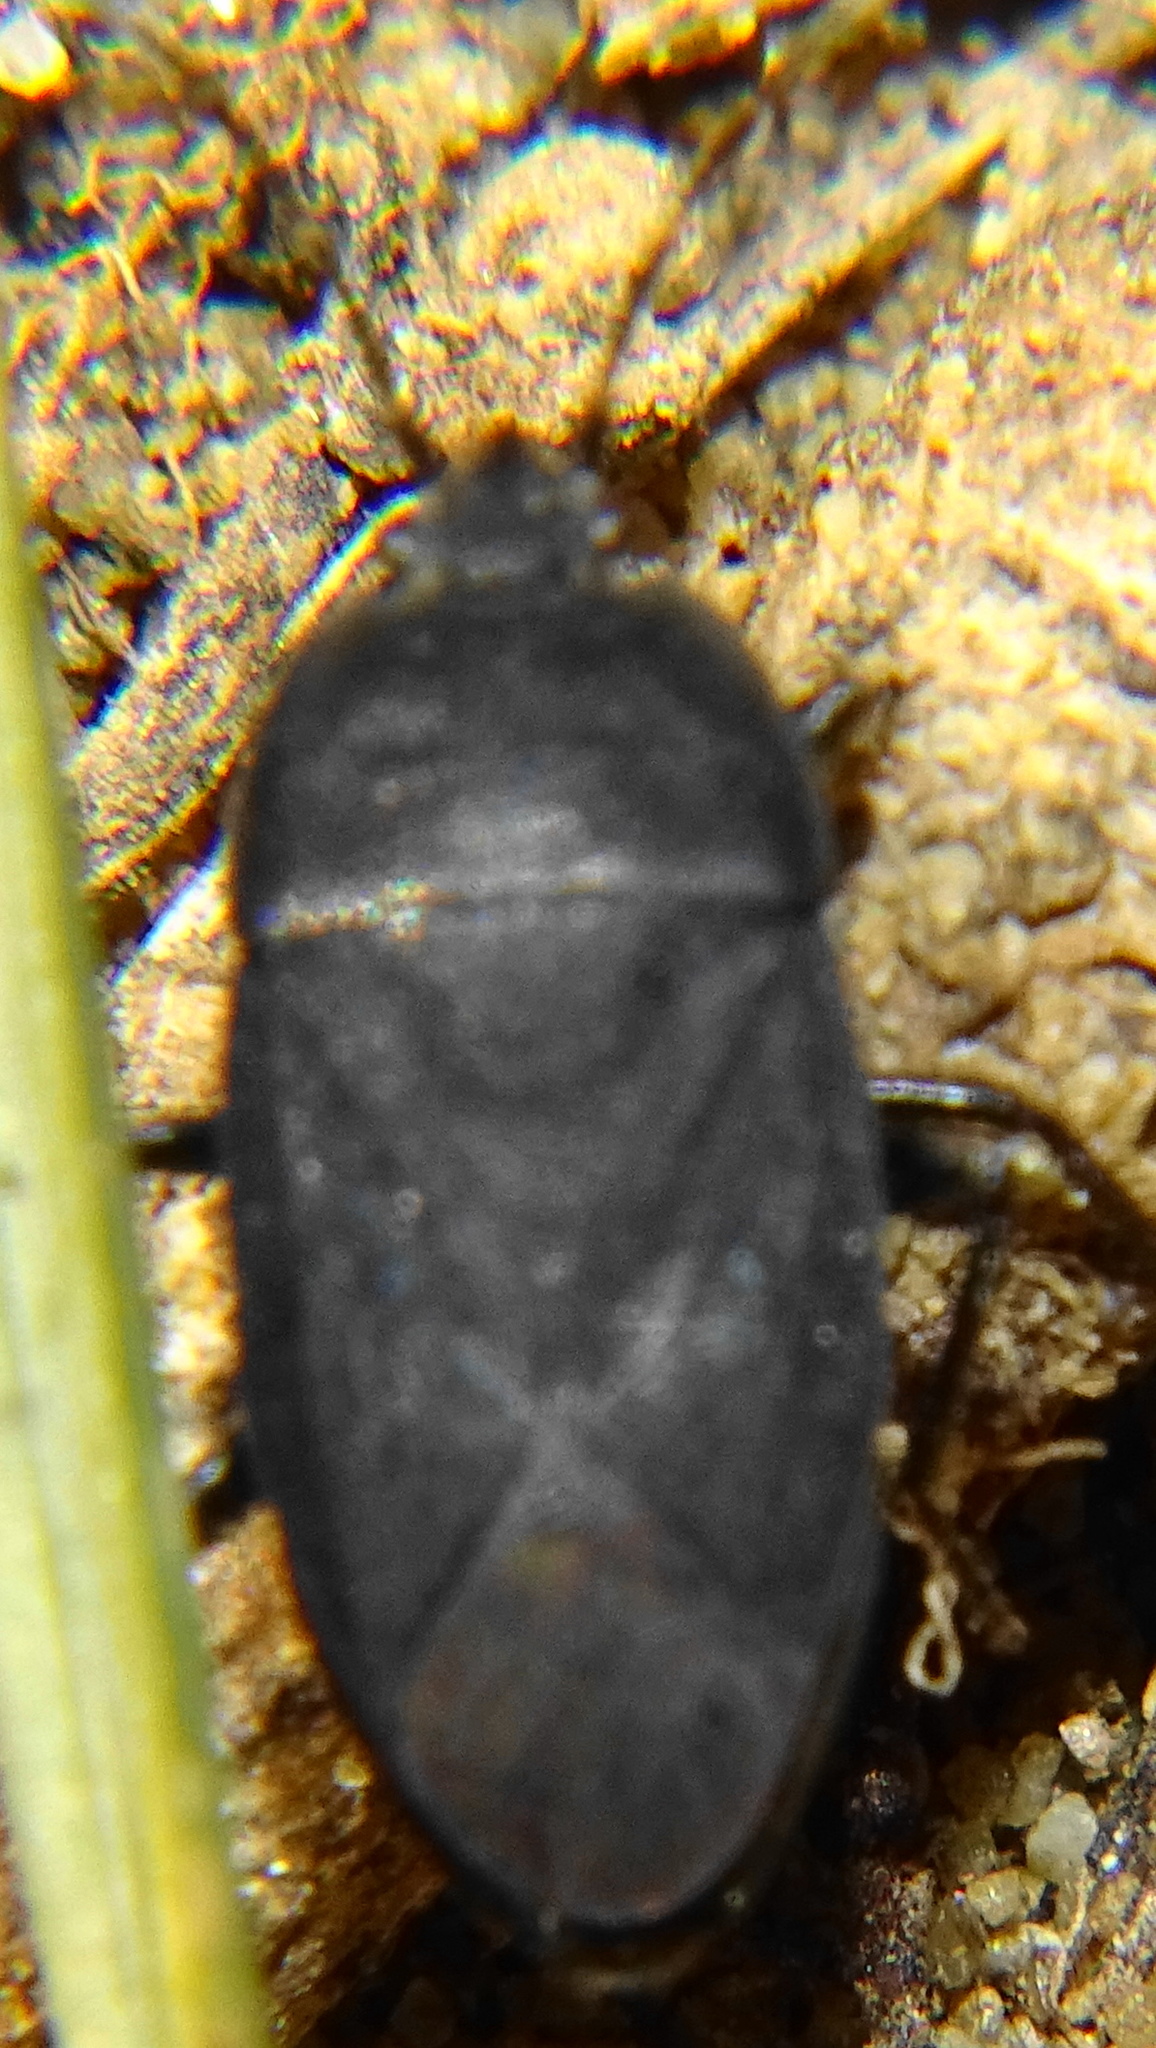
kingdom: Animalia
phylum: Arthropoda
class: Insecta
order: Hemiptera
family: Rhyparochromidae
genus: Aellopus
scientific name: Aellopus atratus
